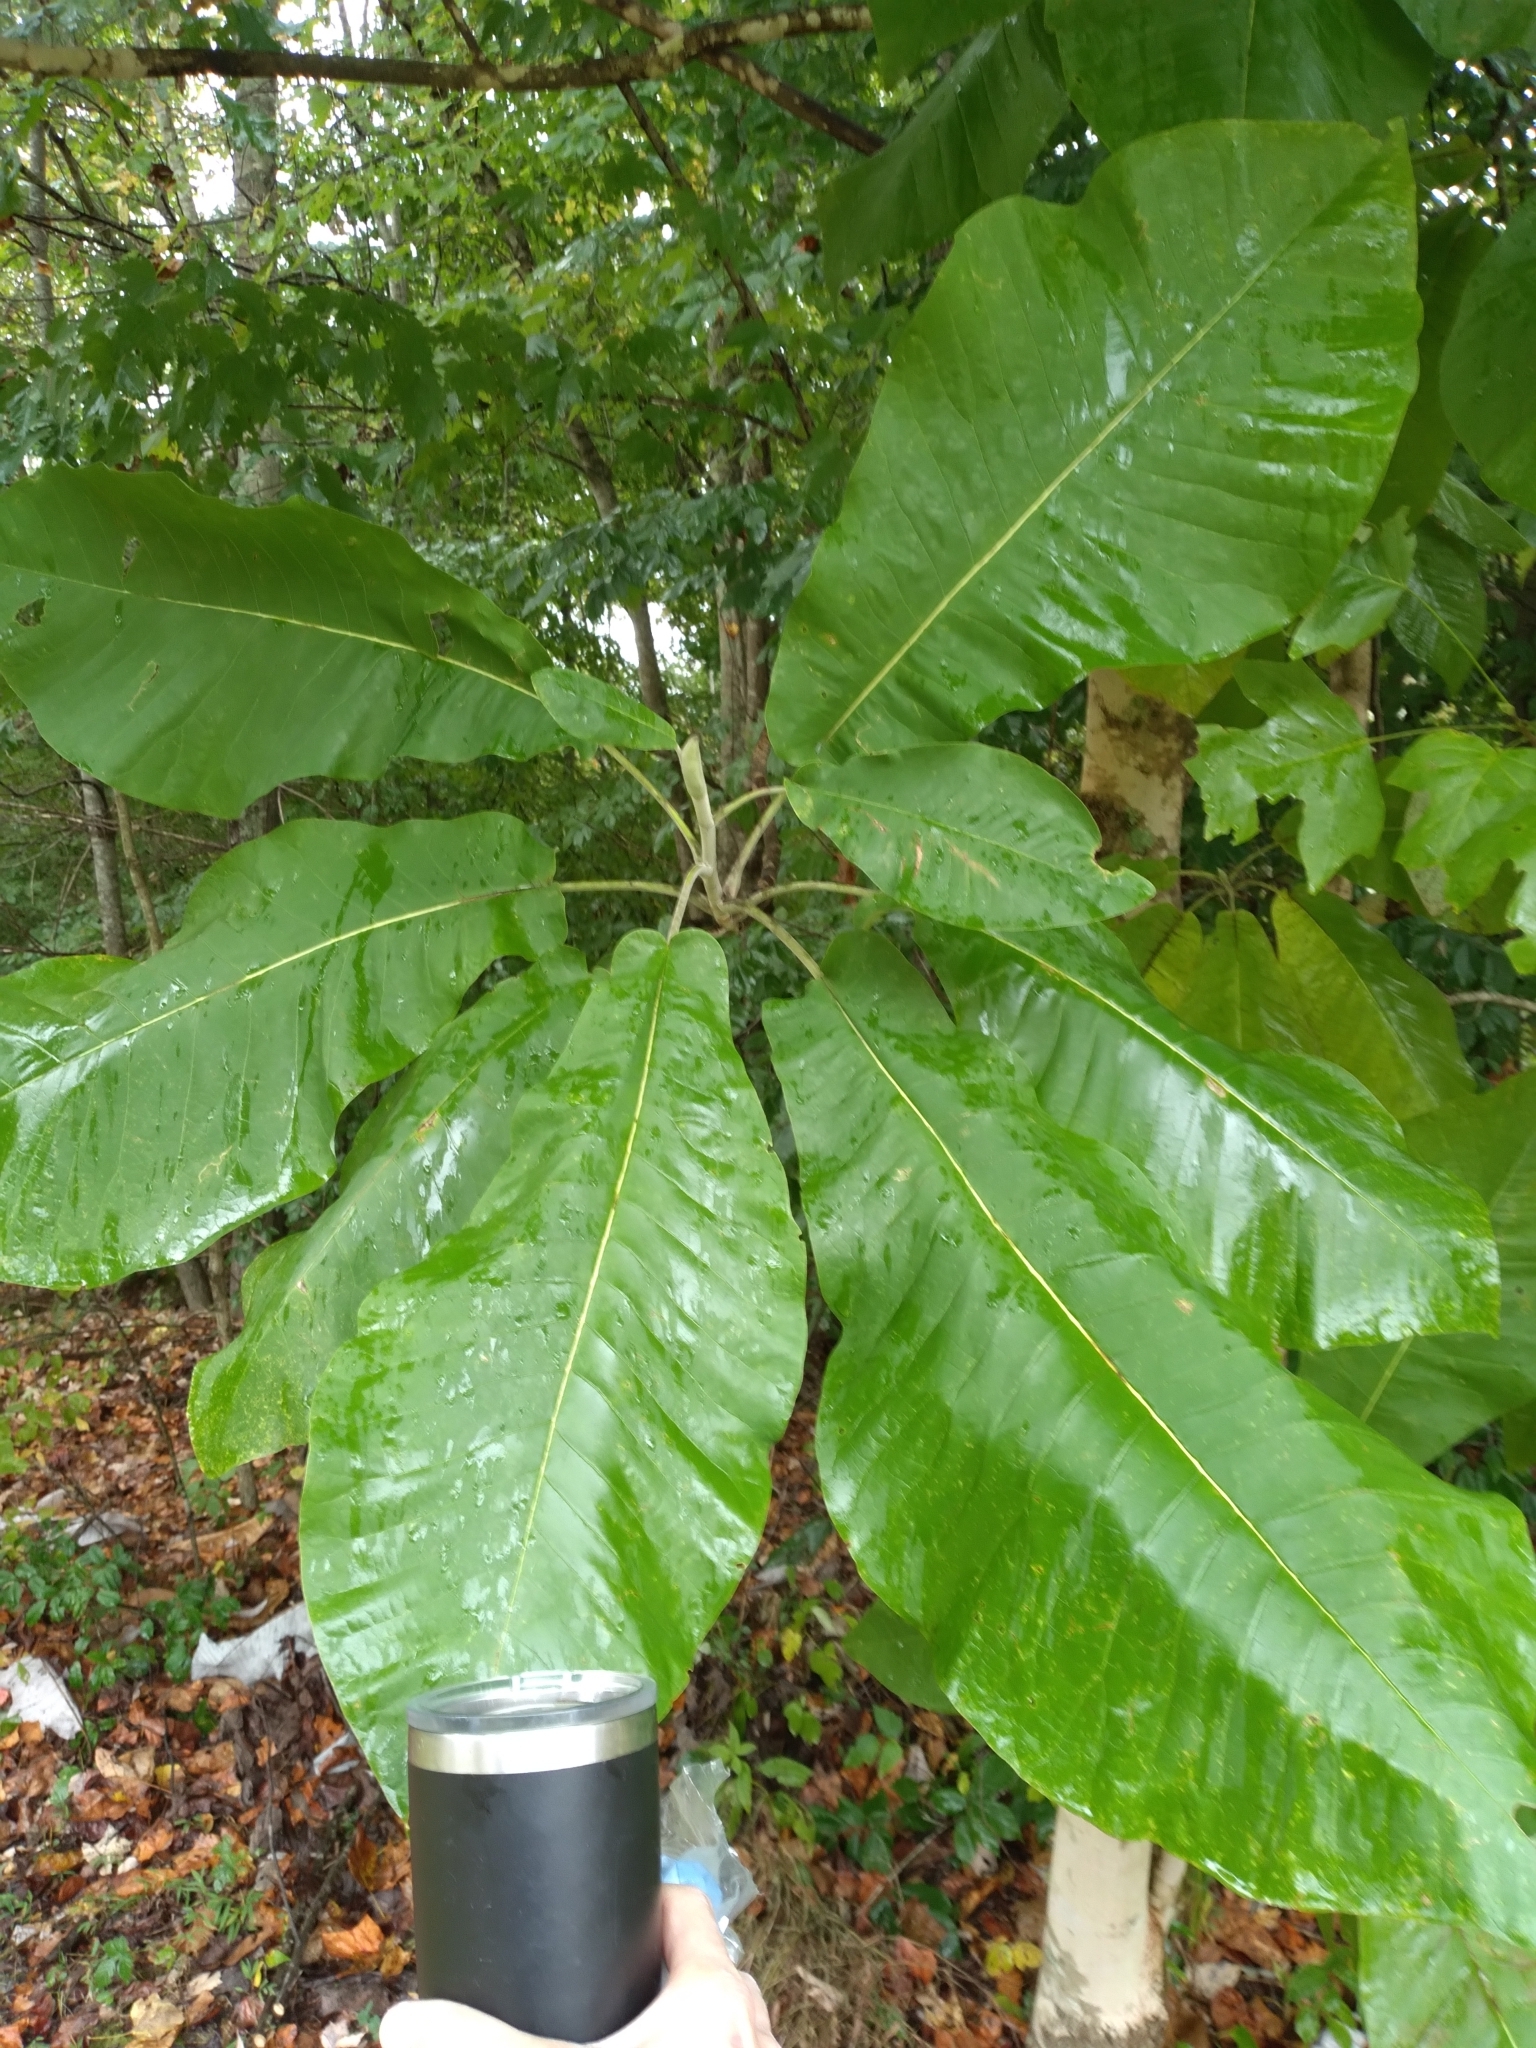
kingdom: Plantae
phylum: Tracheophyta
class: Magnoliopsida
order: Magnoliales
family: Magnoliaceae
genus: Magnolia
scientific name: Magnolia macrophylla
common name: Big-leaf magnolia
